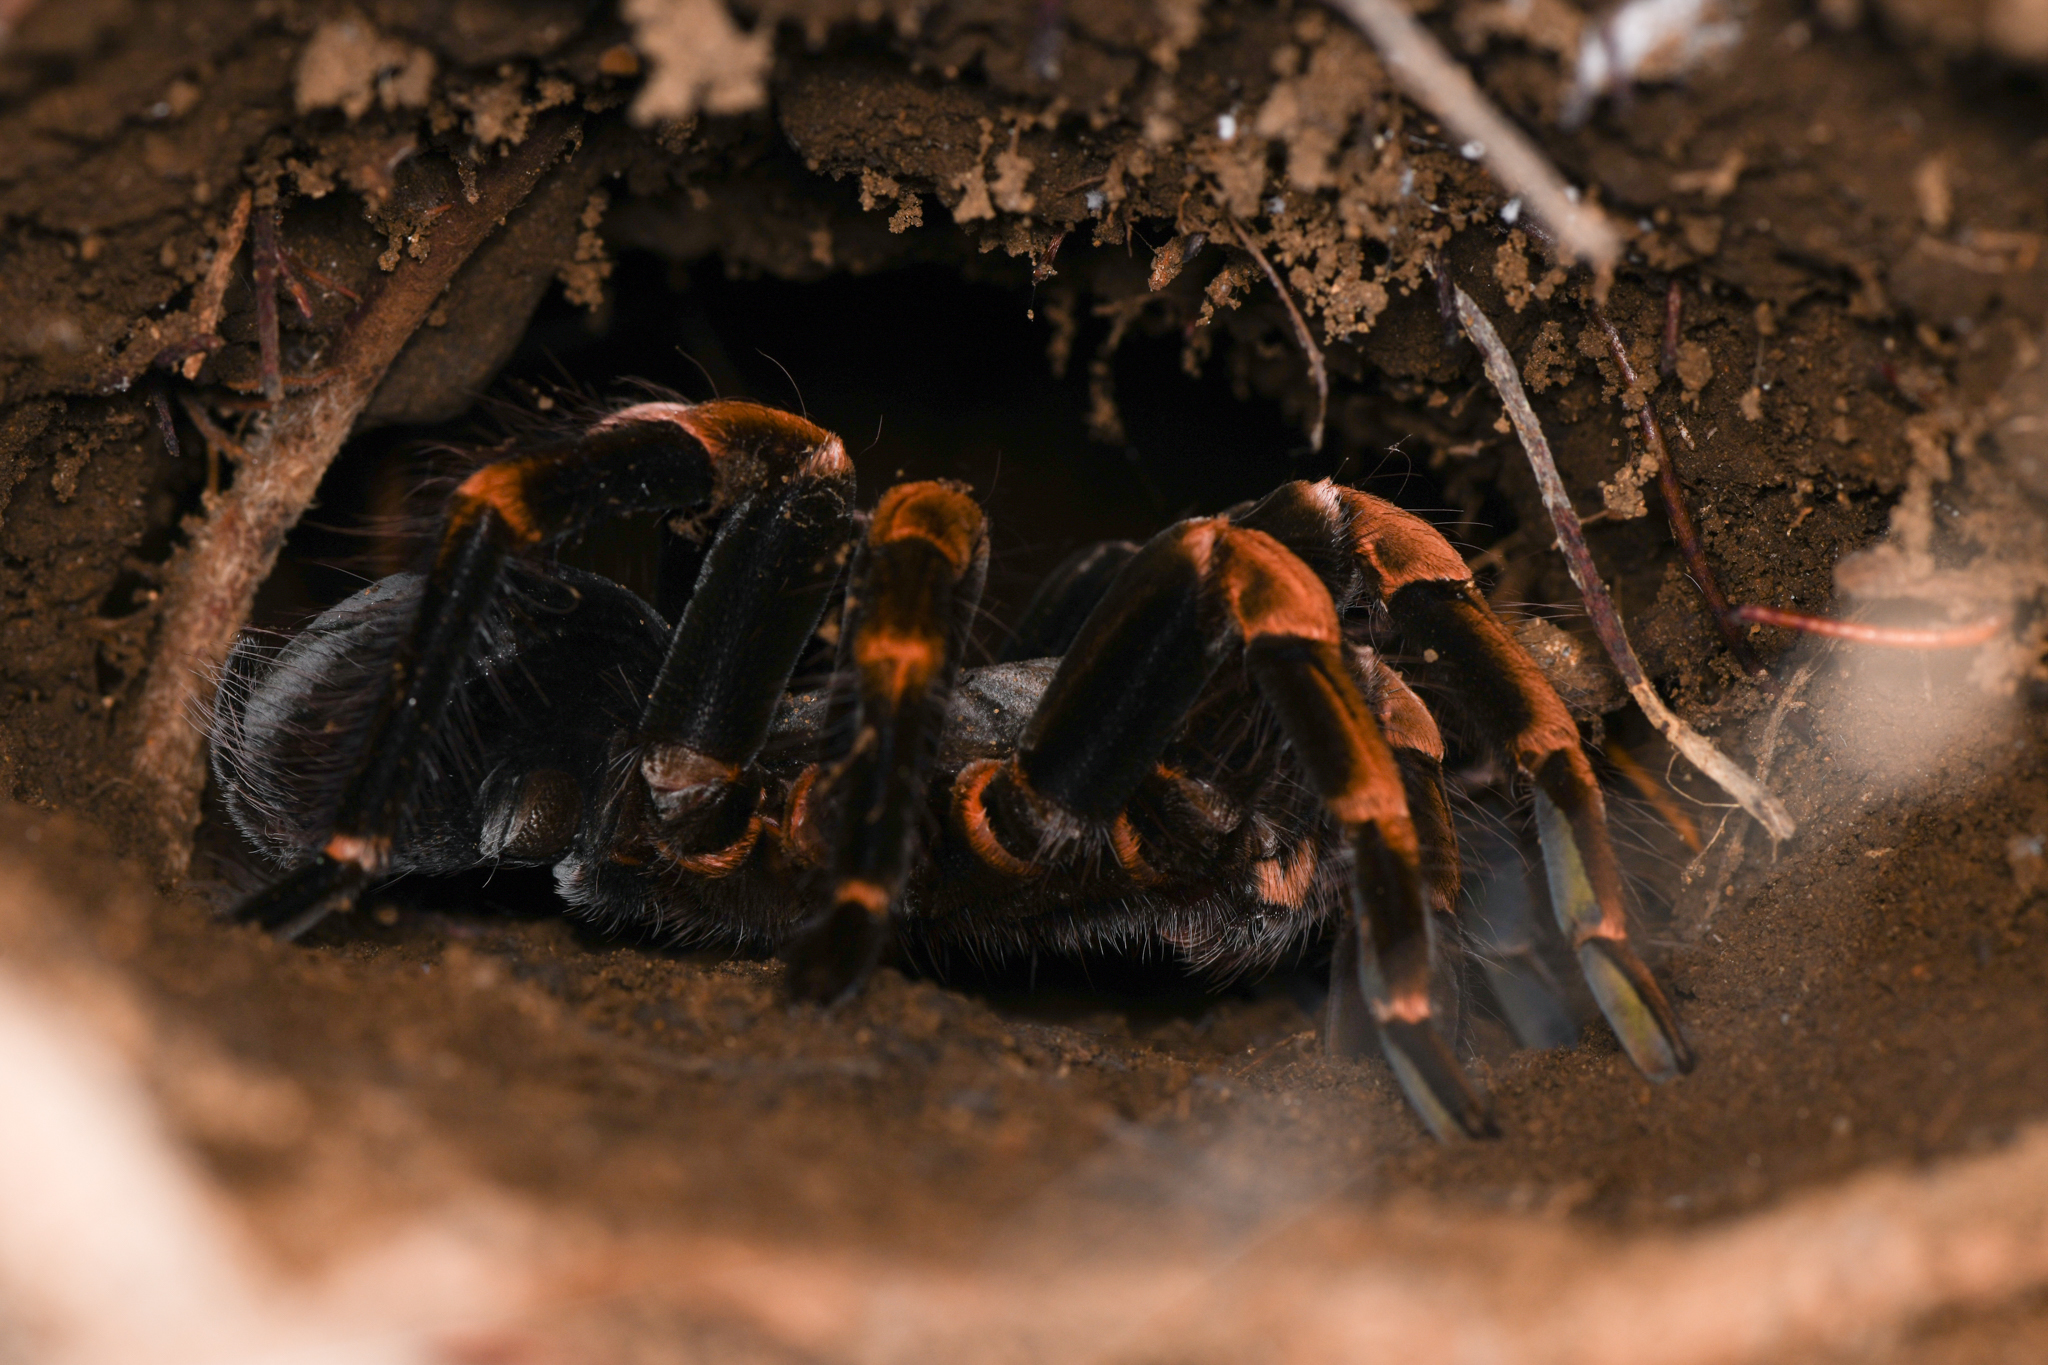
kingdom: Animalia
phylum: Arthropoda
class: Arachnida
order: Araneae
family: Theraphosidae
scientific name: Theraphosidae
